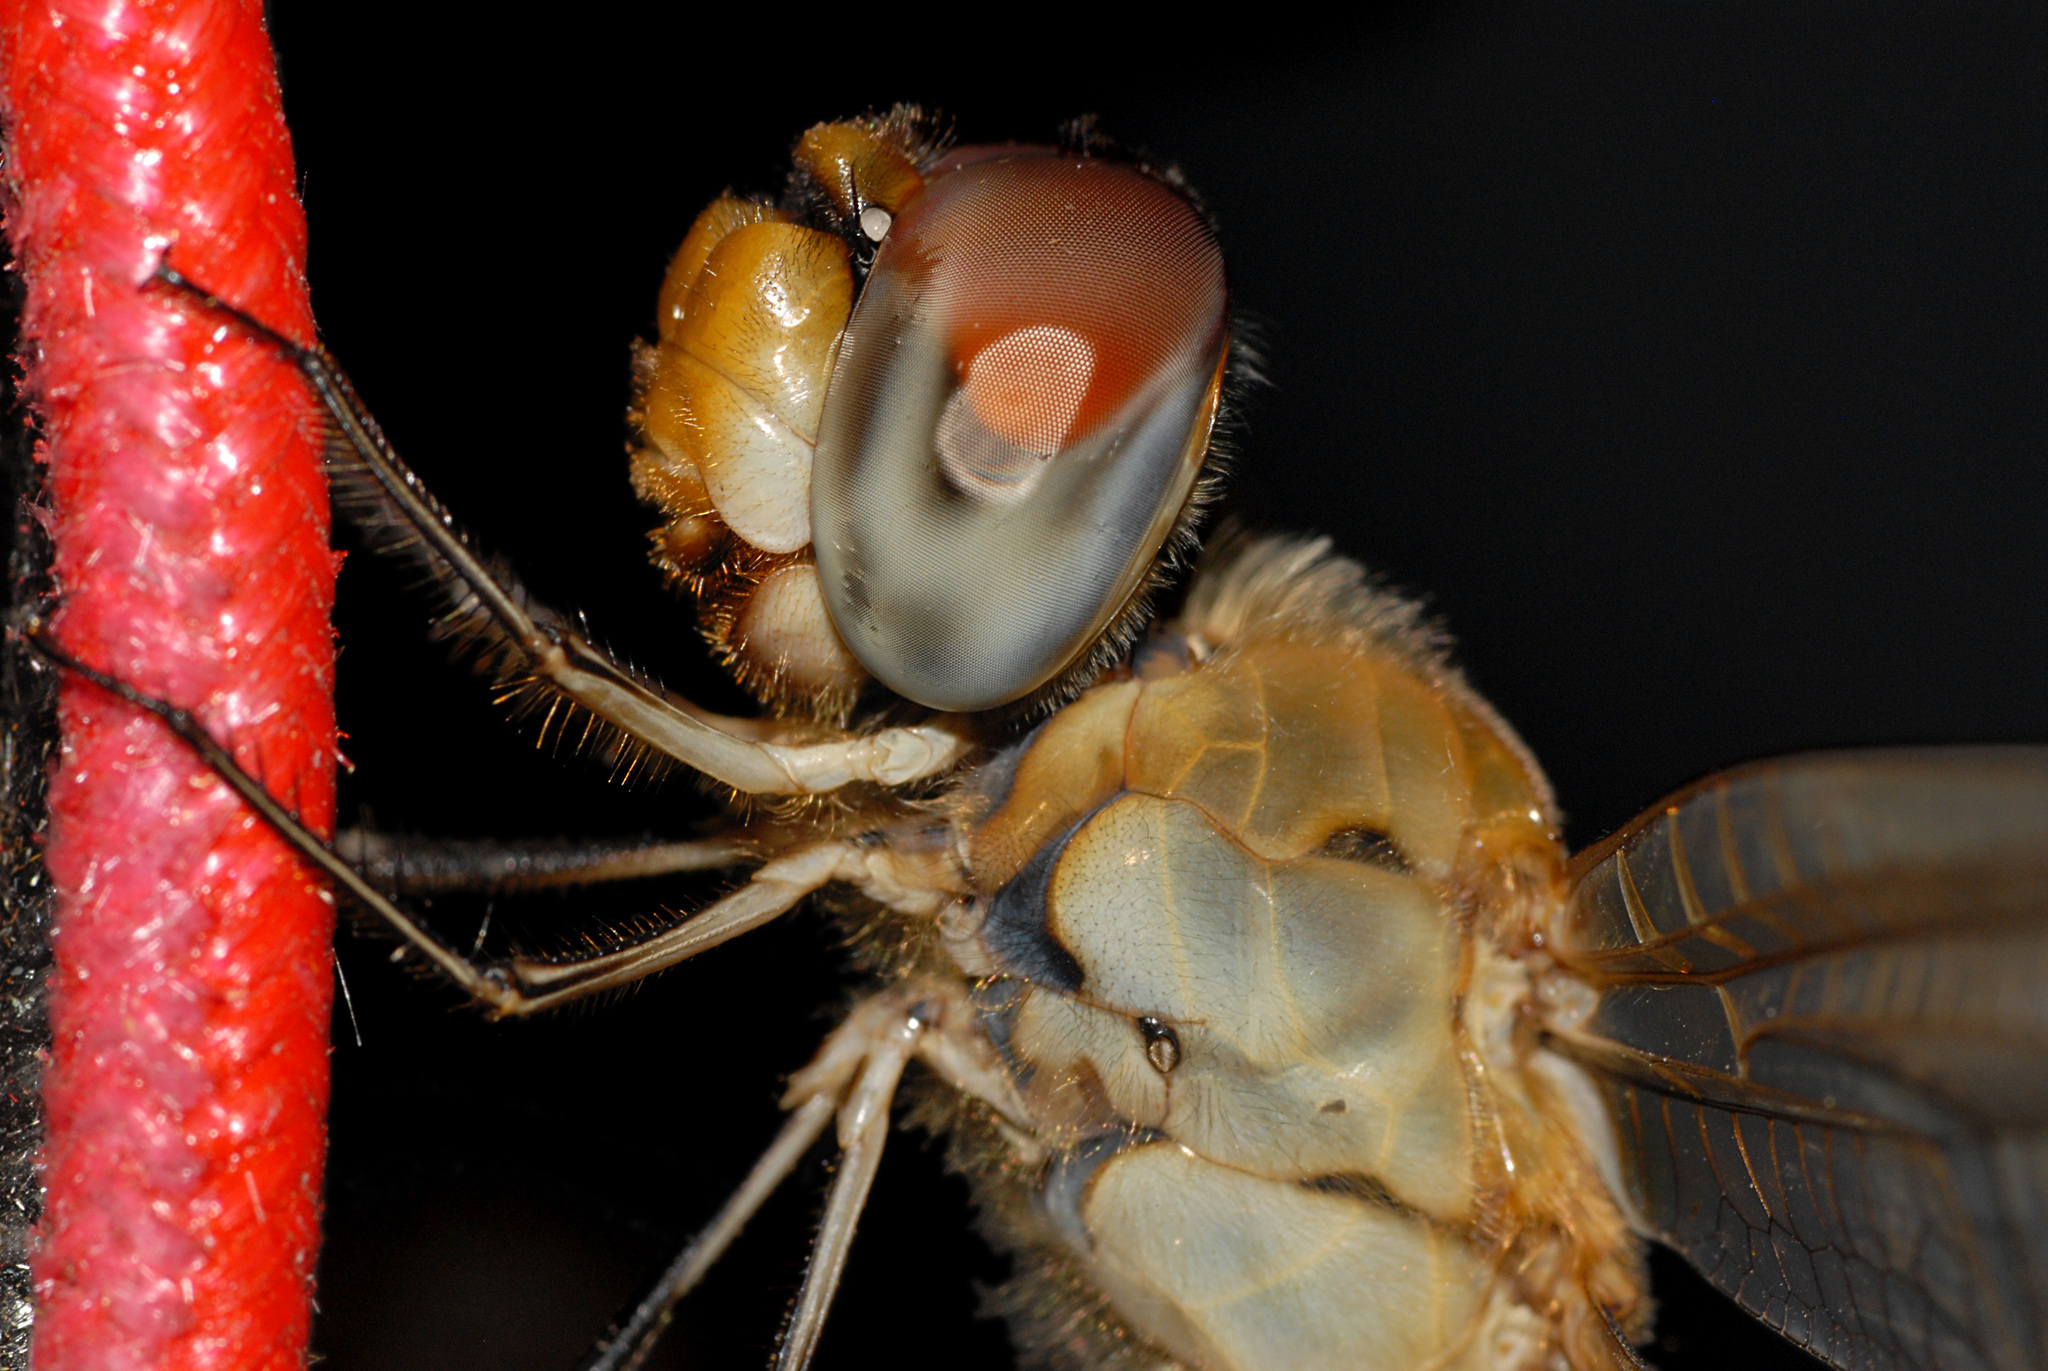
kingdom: Animalia
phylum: Arthropoda
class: Insecta
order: Odonata
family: Libellulidae
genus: Pantala
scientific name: Pantala flavescens
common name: Wandering glider
